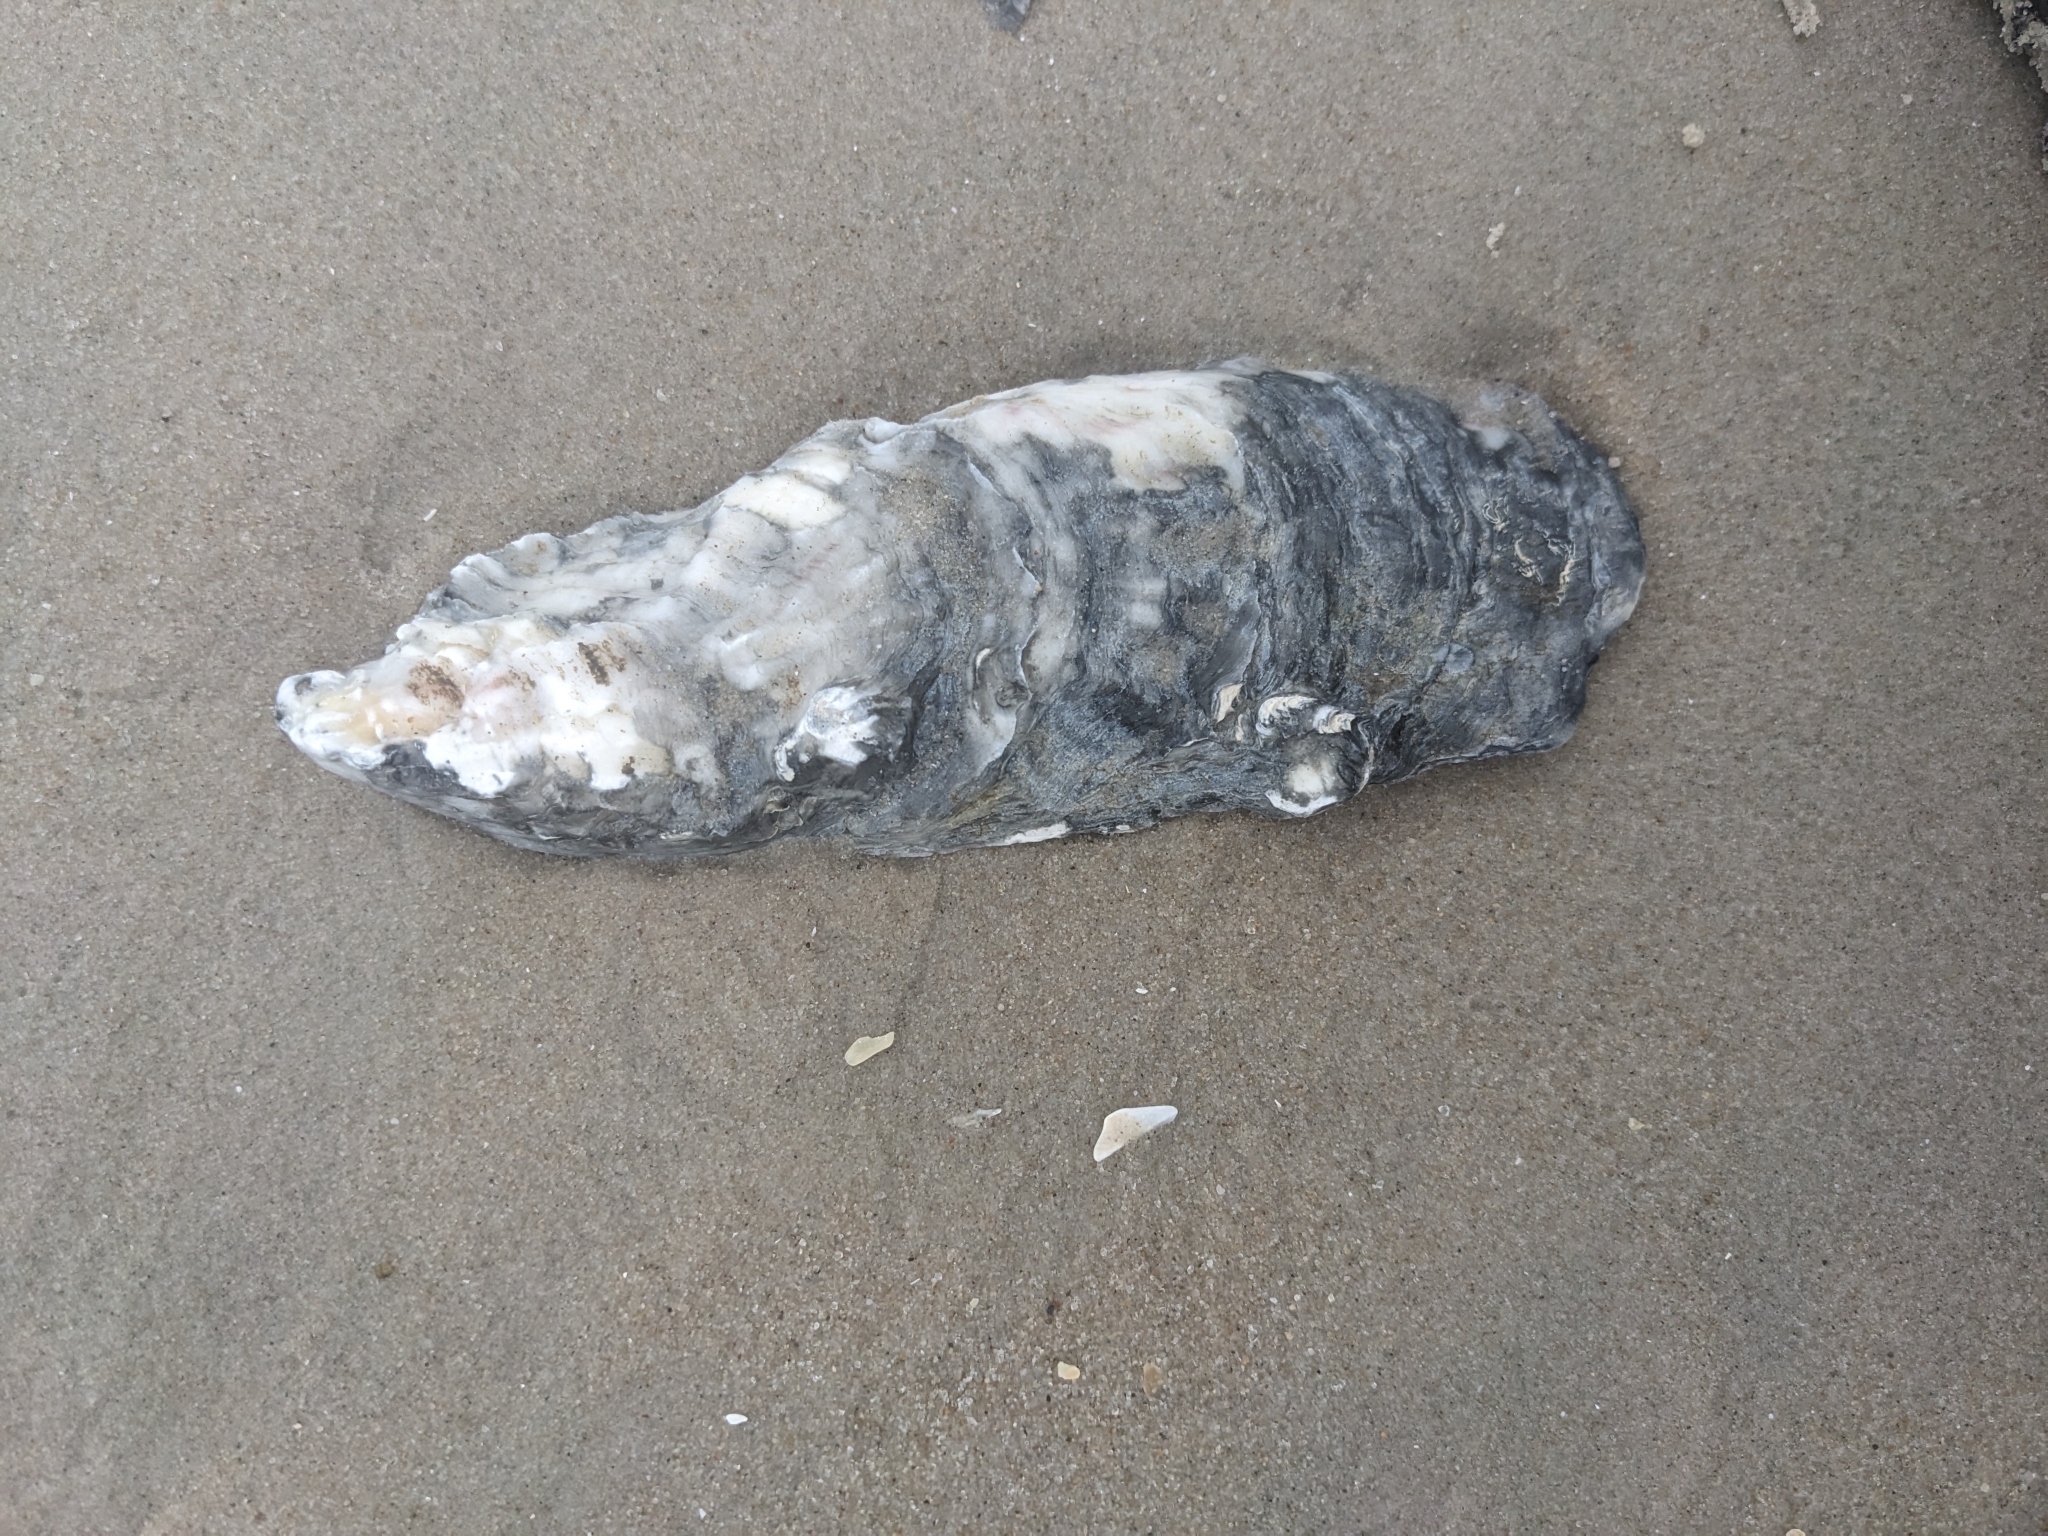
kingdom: Animalia
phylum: Mollusca
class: Bivalvia
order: Ostreida
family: Ostreidae
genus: Crassostrea
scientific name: Crassostrea virginica
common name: American oyster
